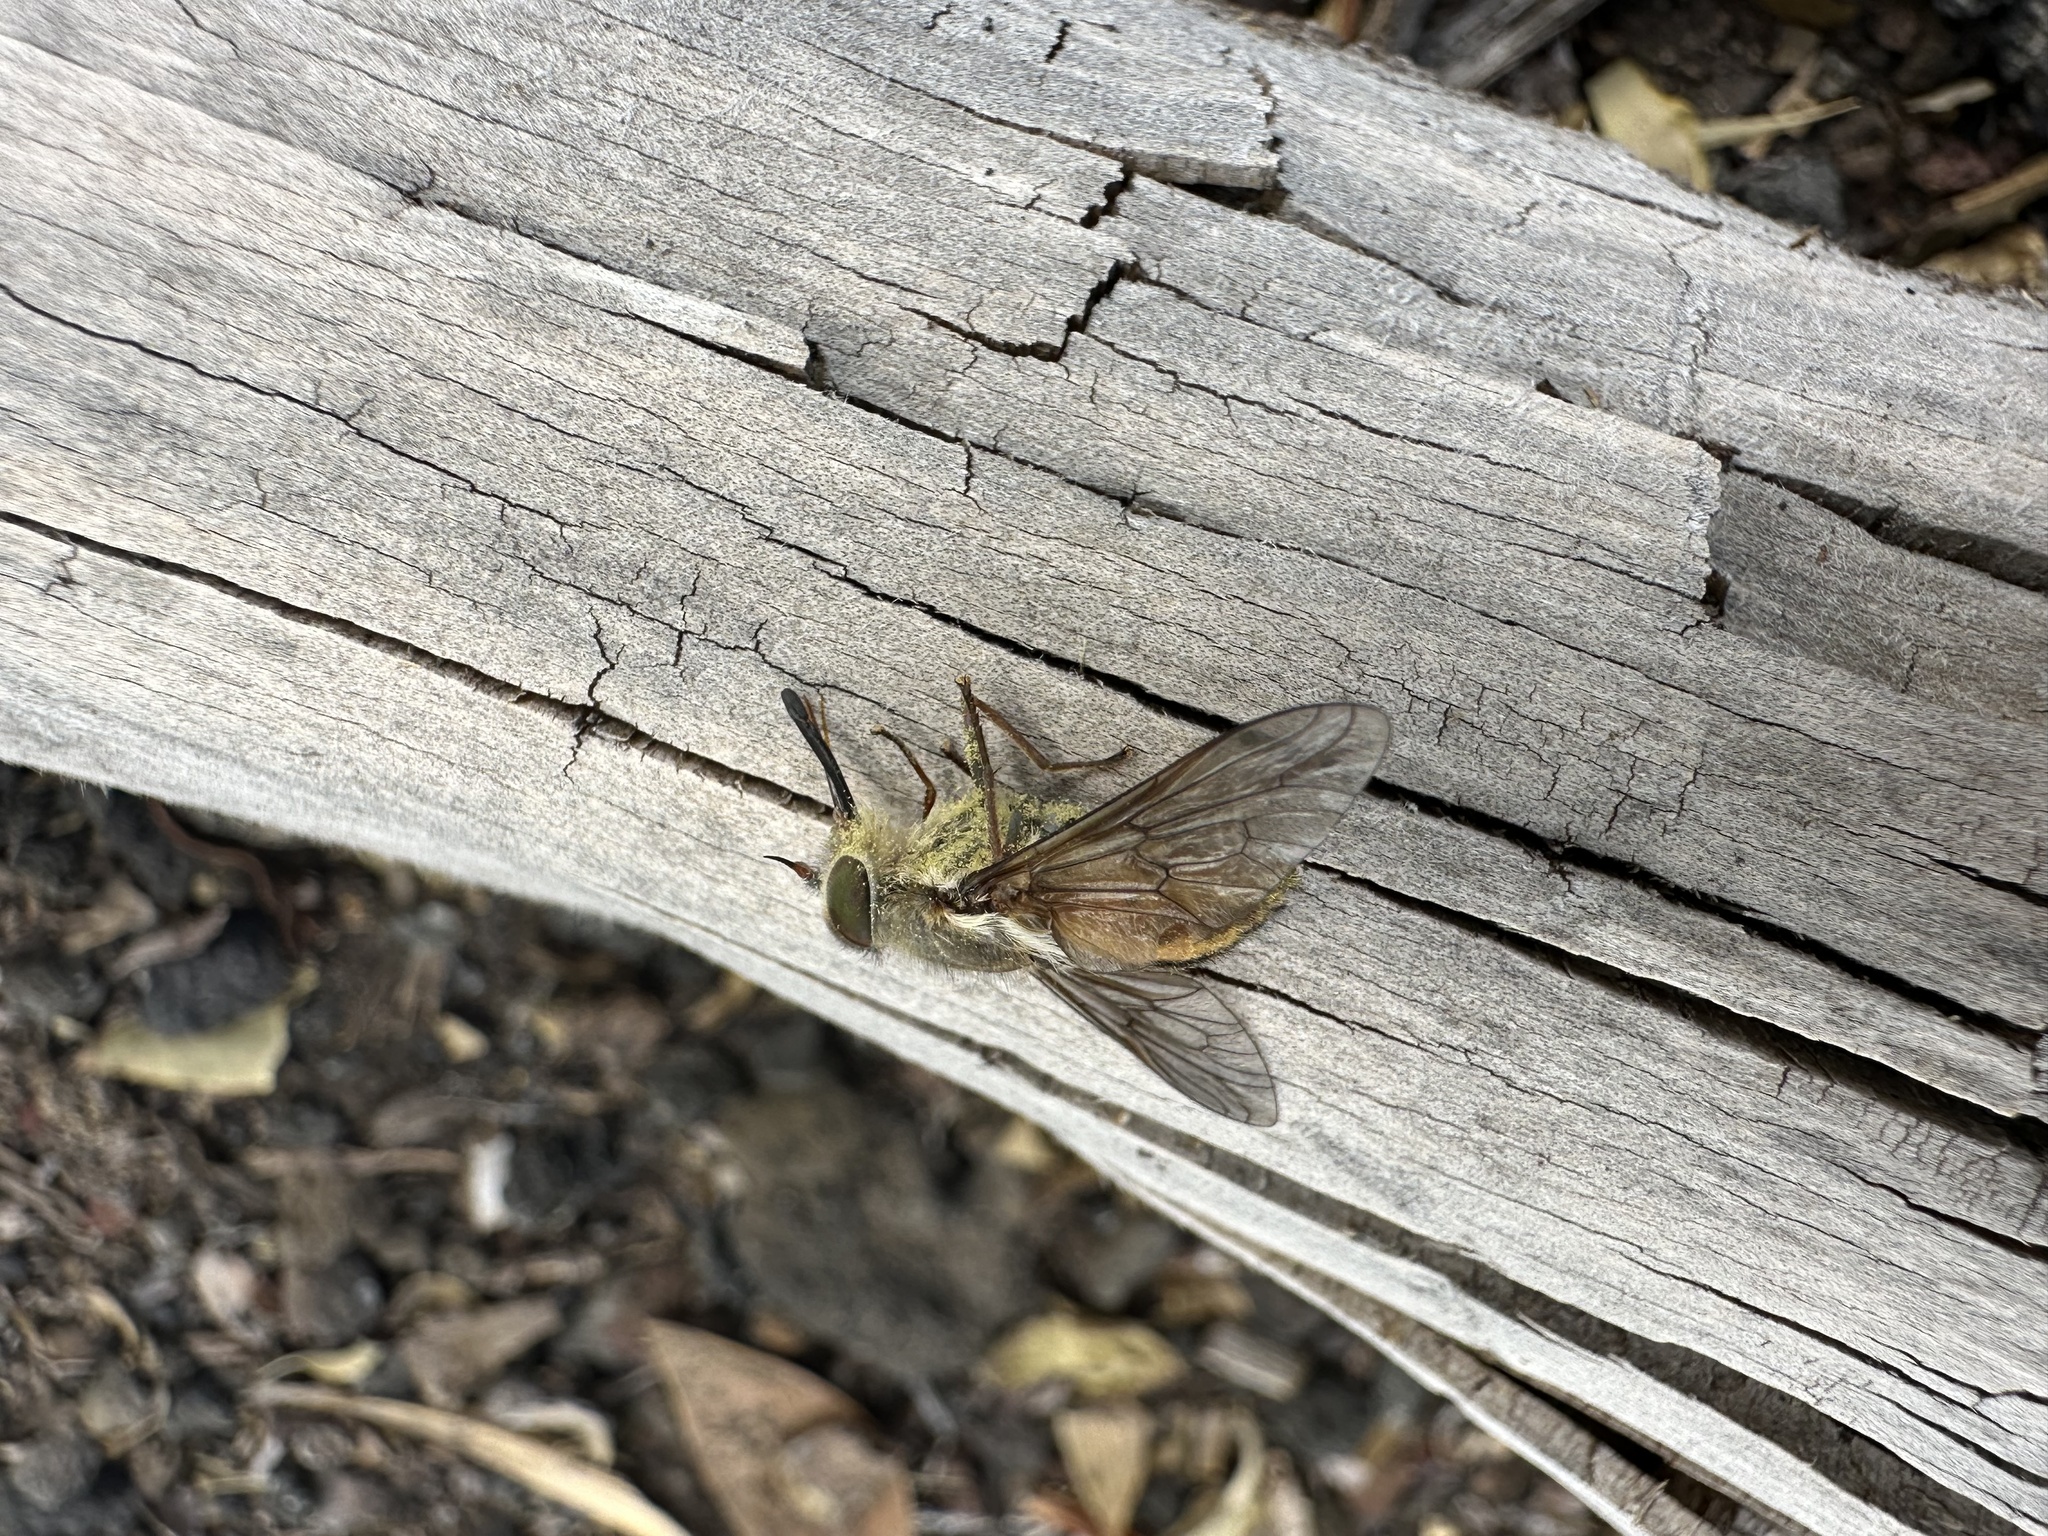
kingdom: Animalia
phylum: Arthropoda
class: Insecta
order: Diptera
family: Tabanidae
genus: Scaptia
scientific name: Scaptia
